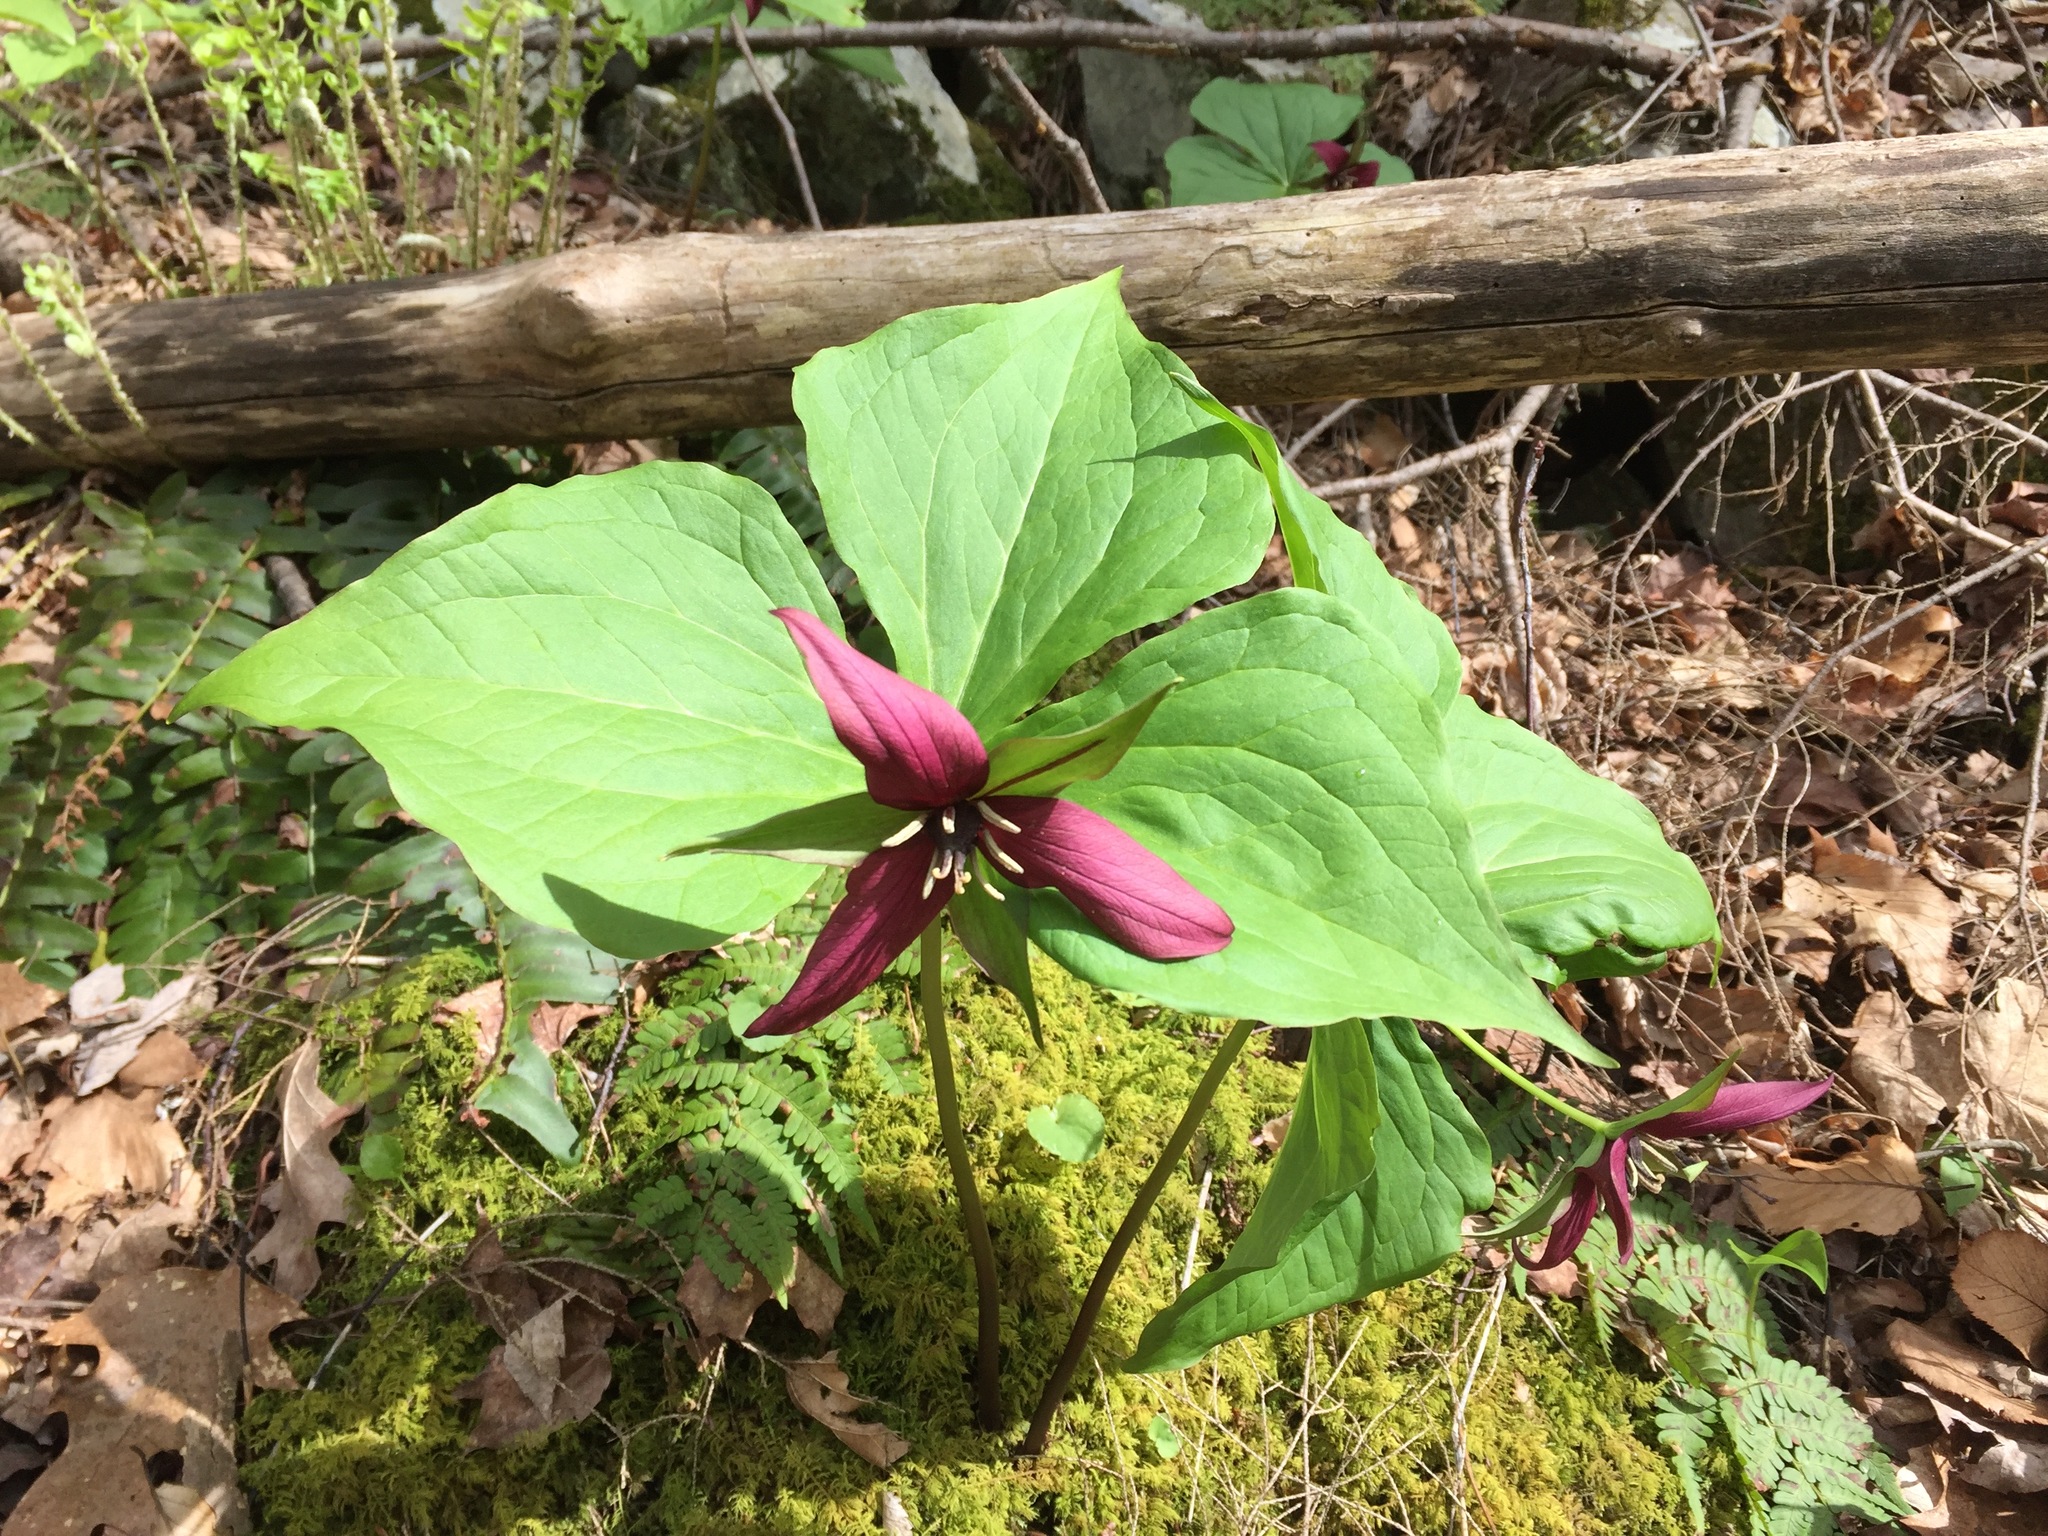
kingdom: Plantae
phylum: Tracheophyta
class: Liliopsida
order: Liliales
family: Melanthiaceae
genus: Trillium
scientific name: Trillium erectum
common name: Purple trillium
